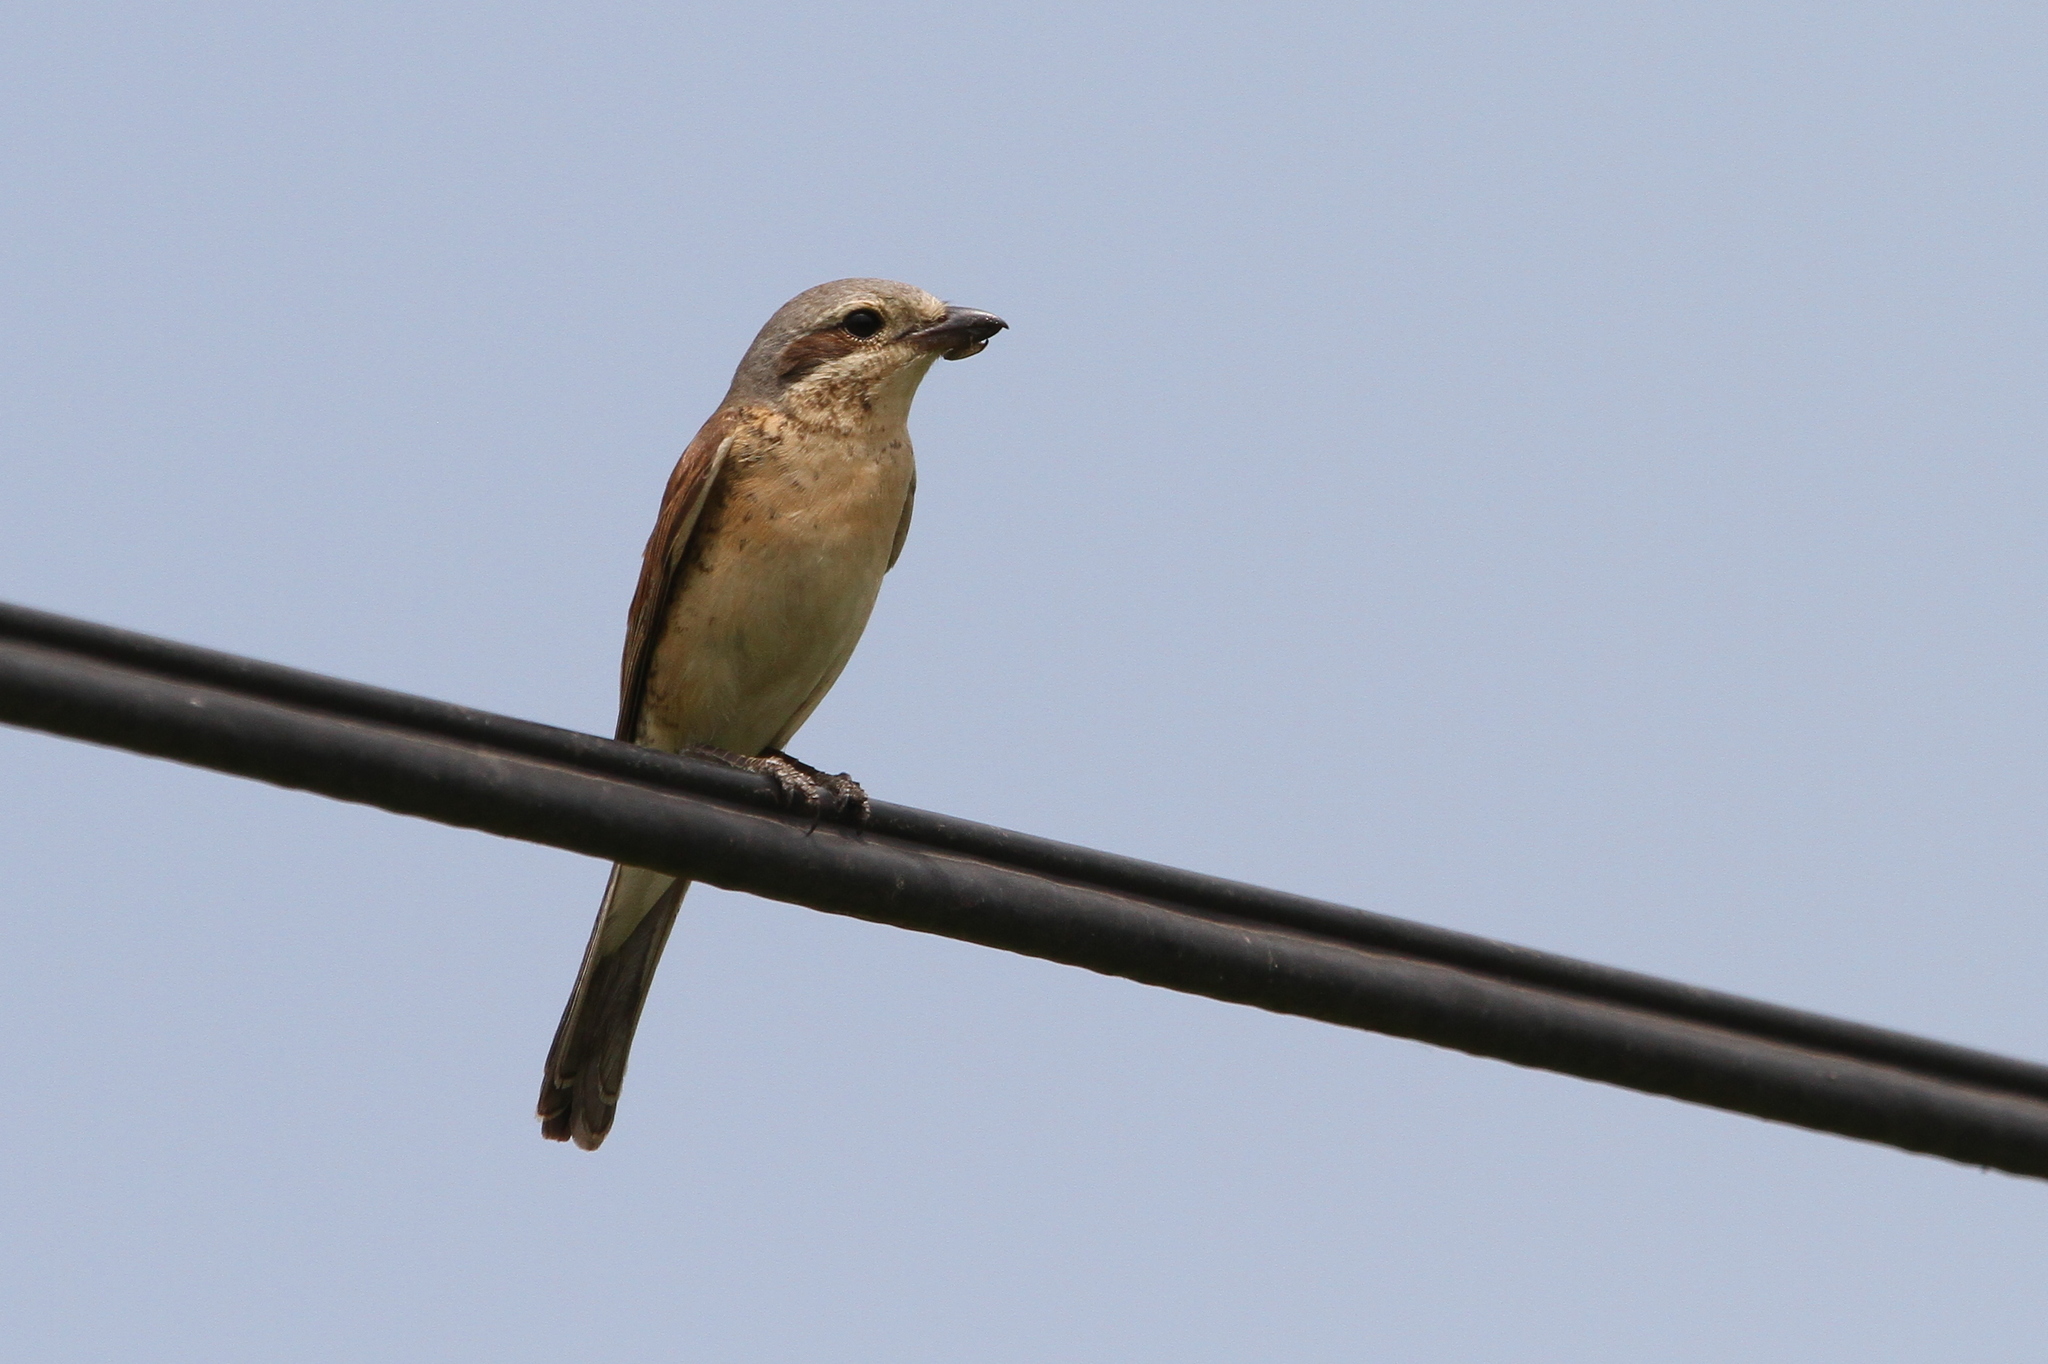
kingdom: Animalia
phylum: Chordata
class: Aves
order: Passeriformes
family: Laniidae
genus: Lanius
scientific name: Lanius collurio
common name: Red-backed shrike
